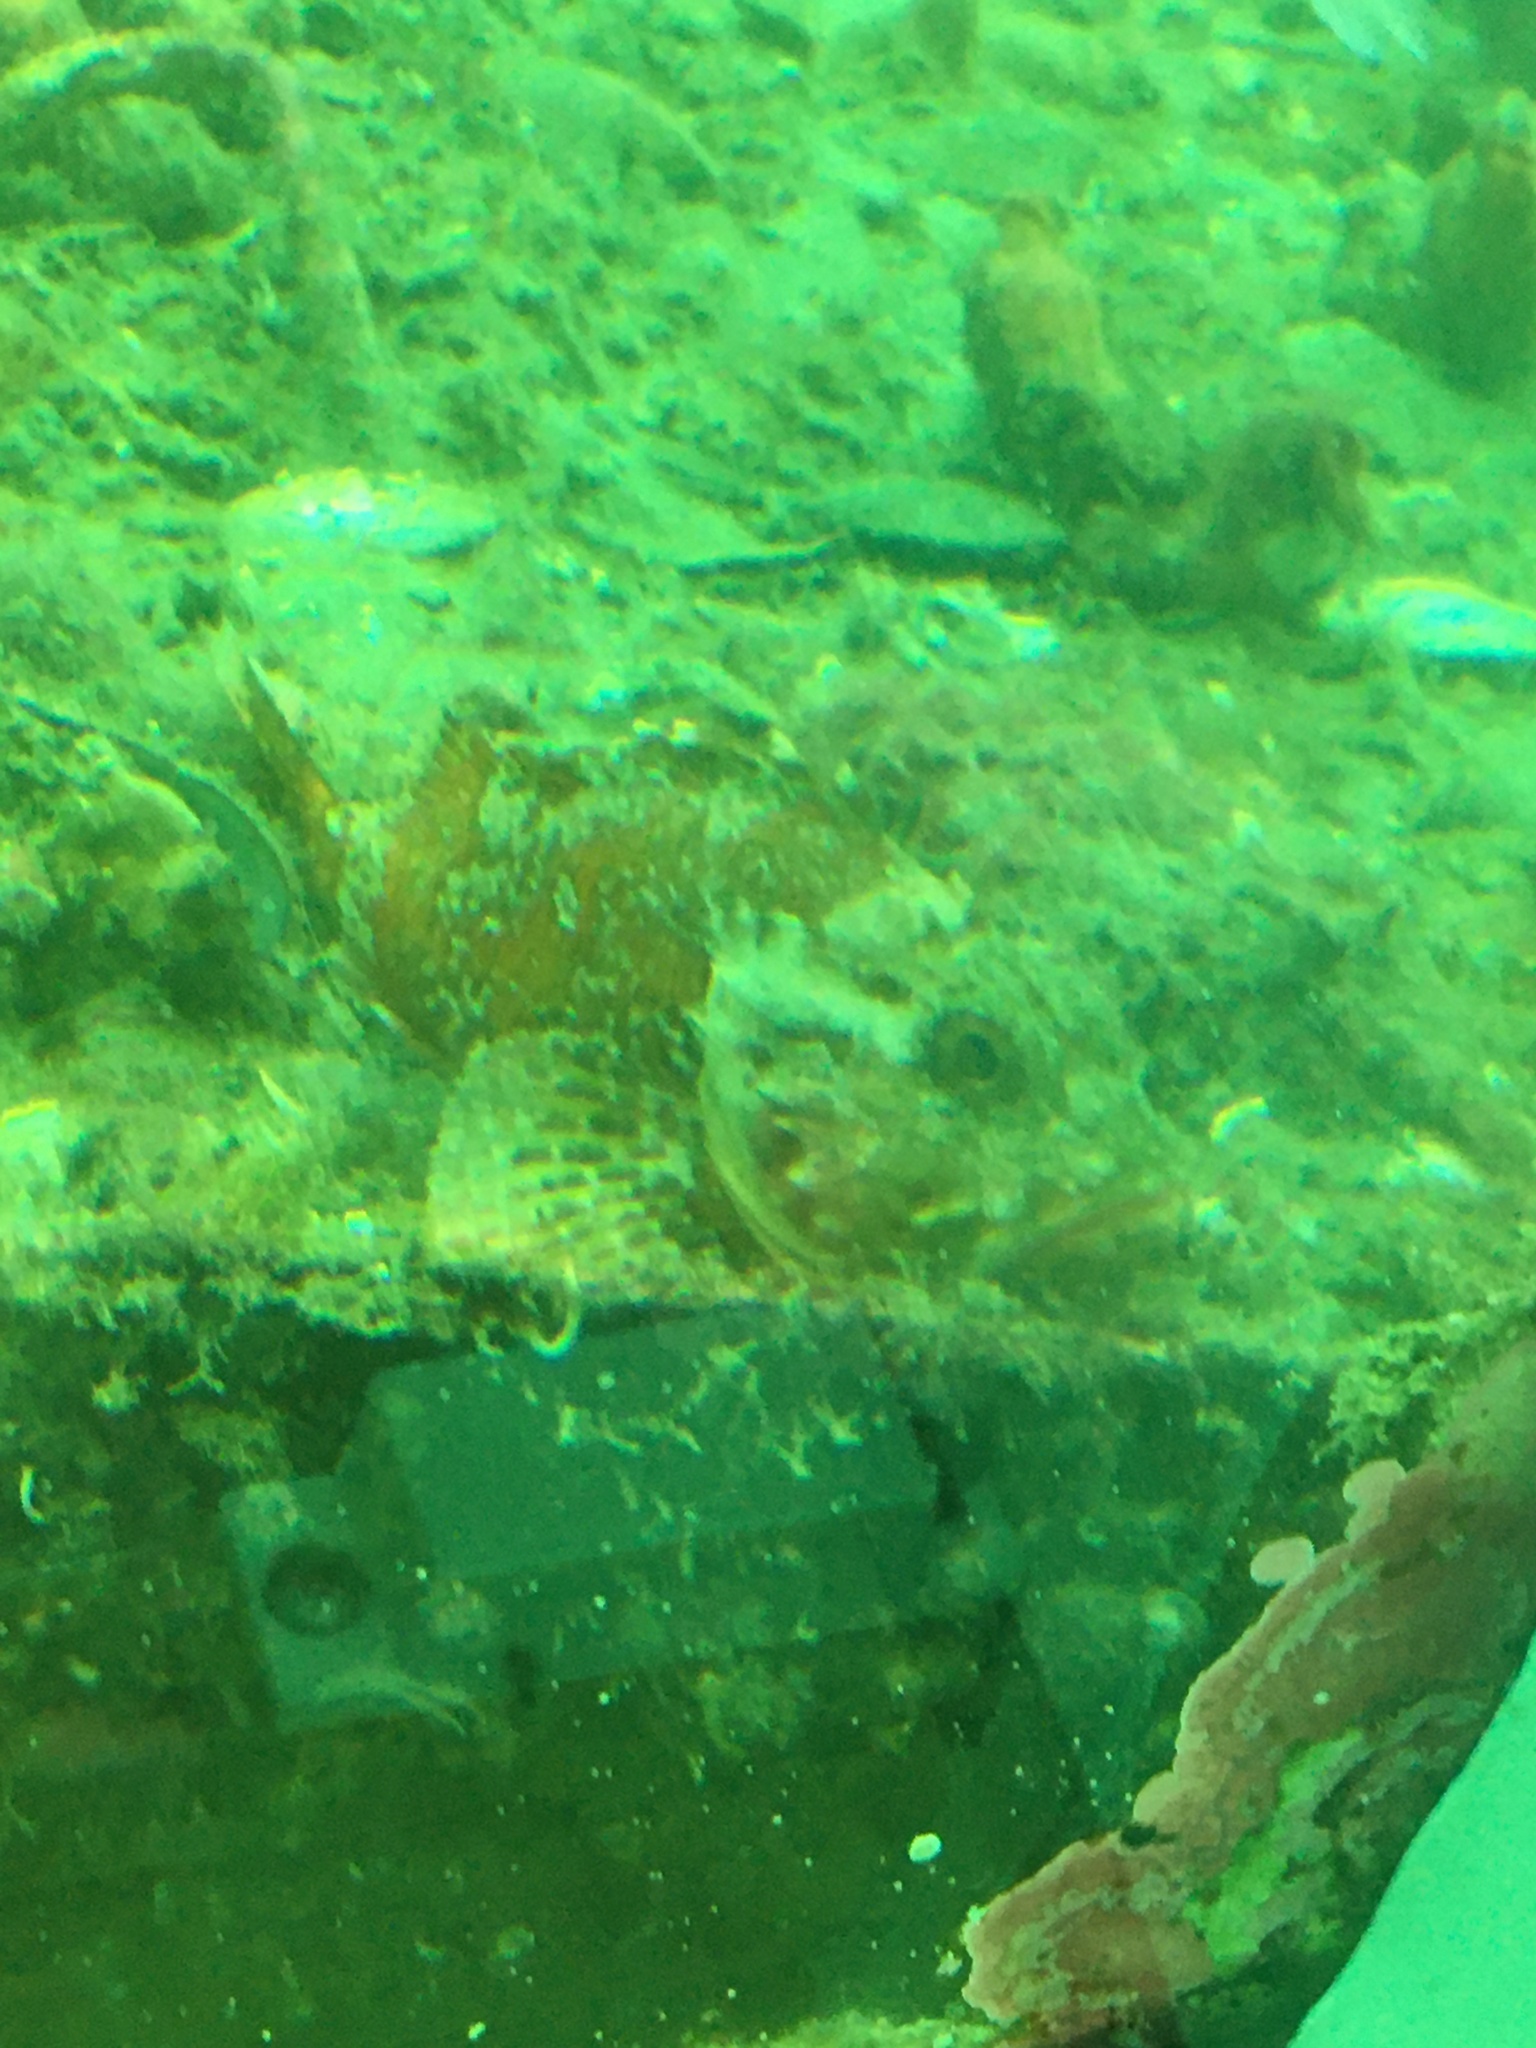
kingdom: Animalia
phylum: Chordata
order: Scorpaeniformes
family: Scorpaenidae
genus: Scorpaena
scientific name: Scorpaena papillosa
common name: Chained scorpionfish
